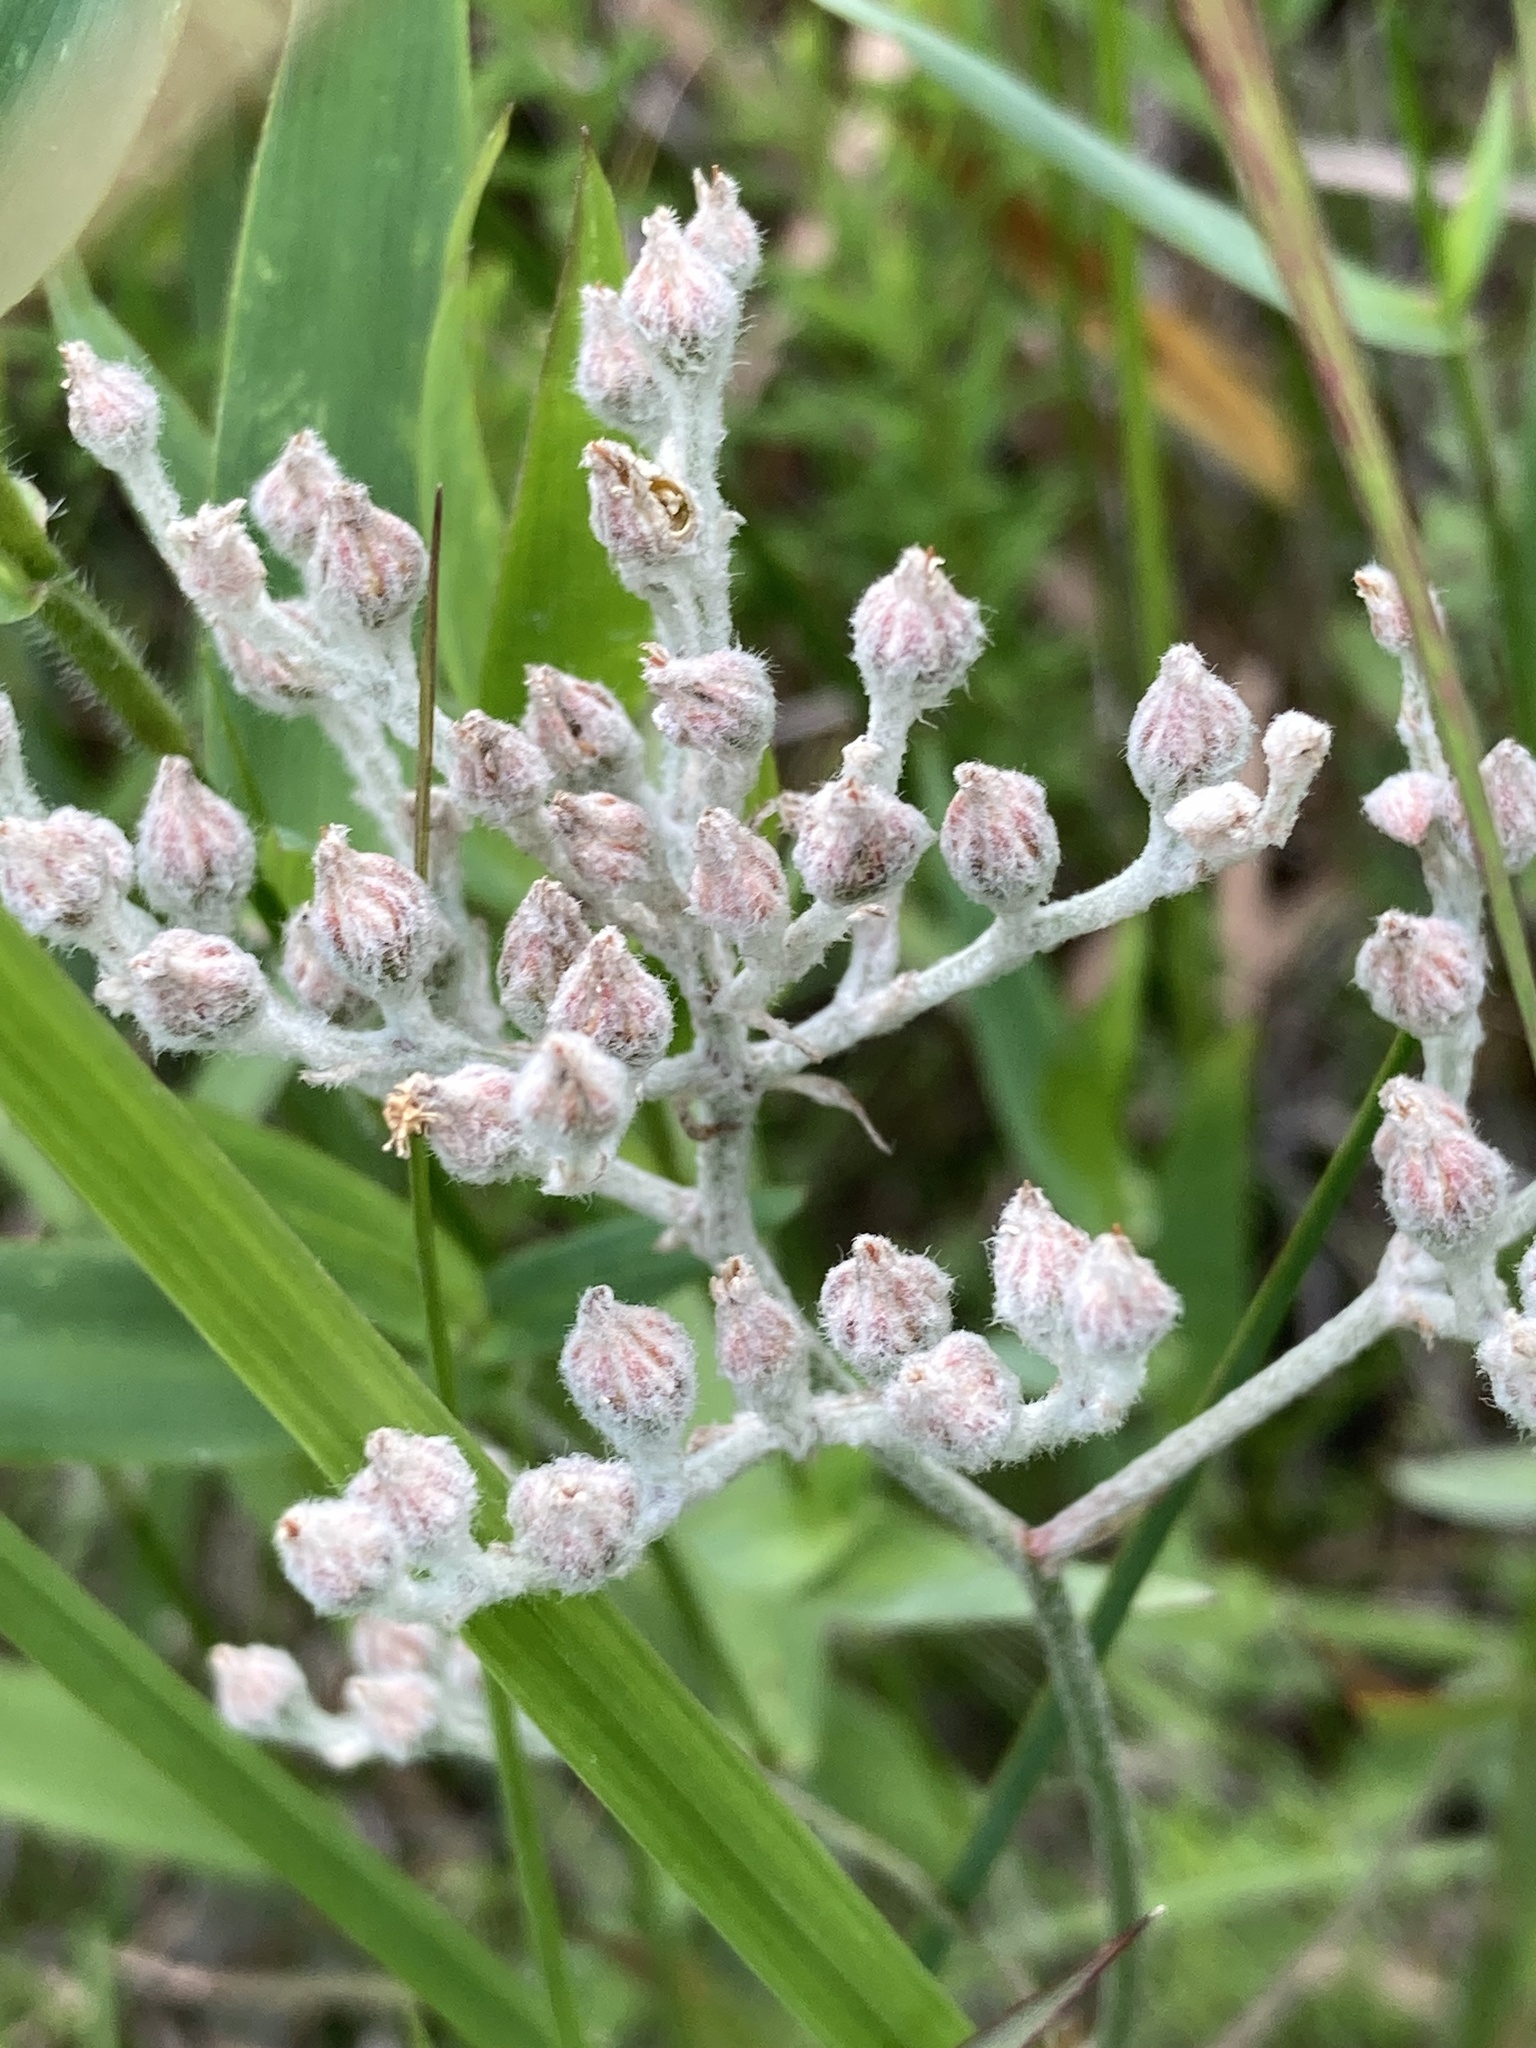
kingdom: Plantae
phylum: Tracheophyta
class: Liliopsida
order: Dioscoreales
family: Nartheciaceae
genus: Lophiola
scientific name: Lophiola aurea
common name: Golden-crest
